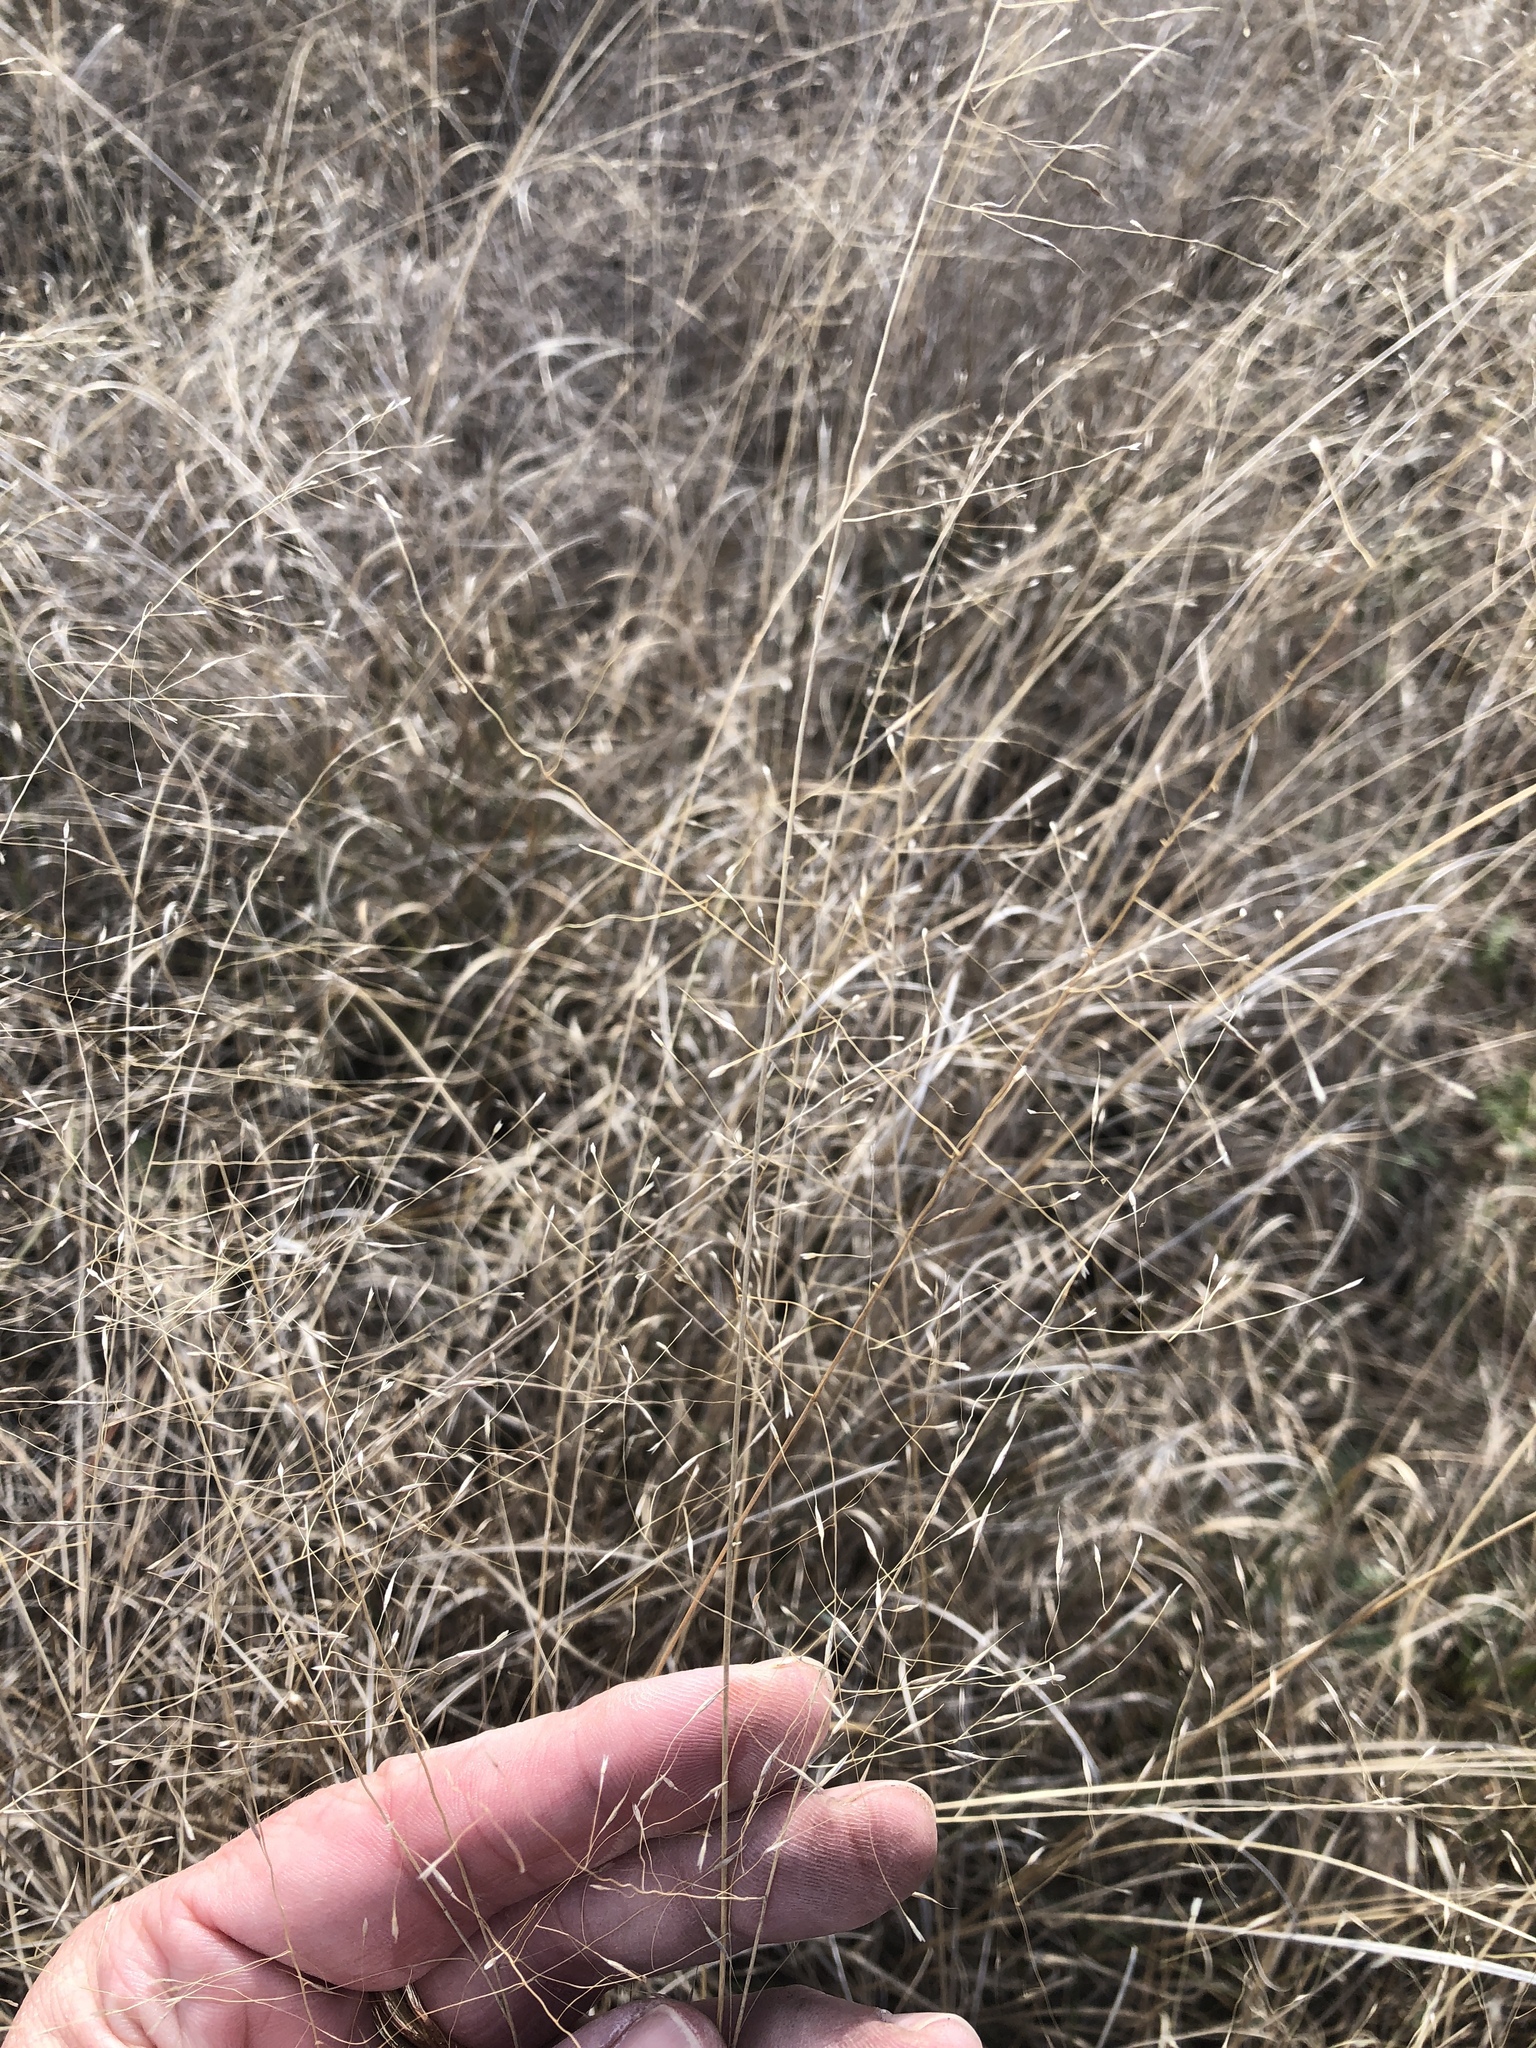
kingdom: Plantae
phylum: Tracheophyta
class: Liliopsida
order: Poales
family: Poaceae
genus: Muhlenbergia
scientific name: Muhlenbergia reverchonii
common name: Seep muhly
